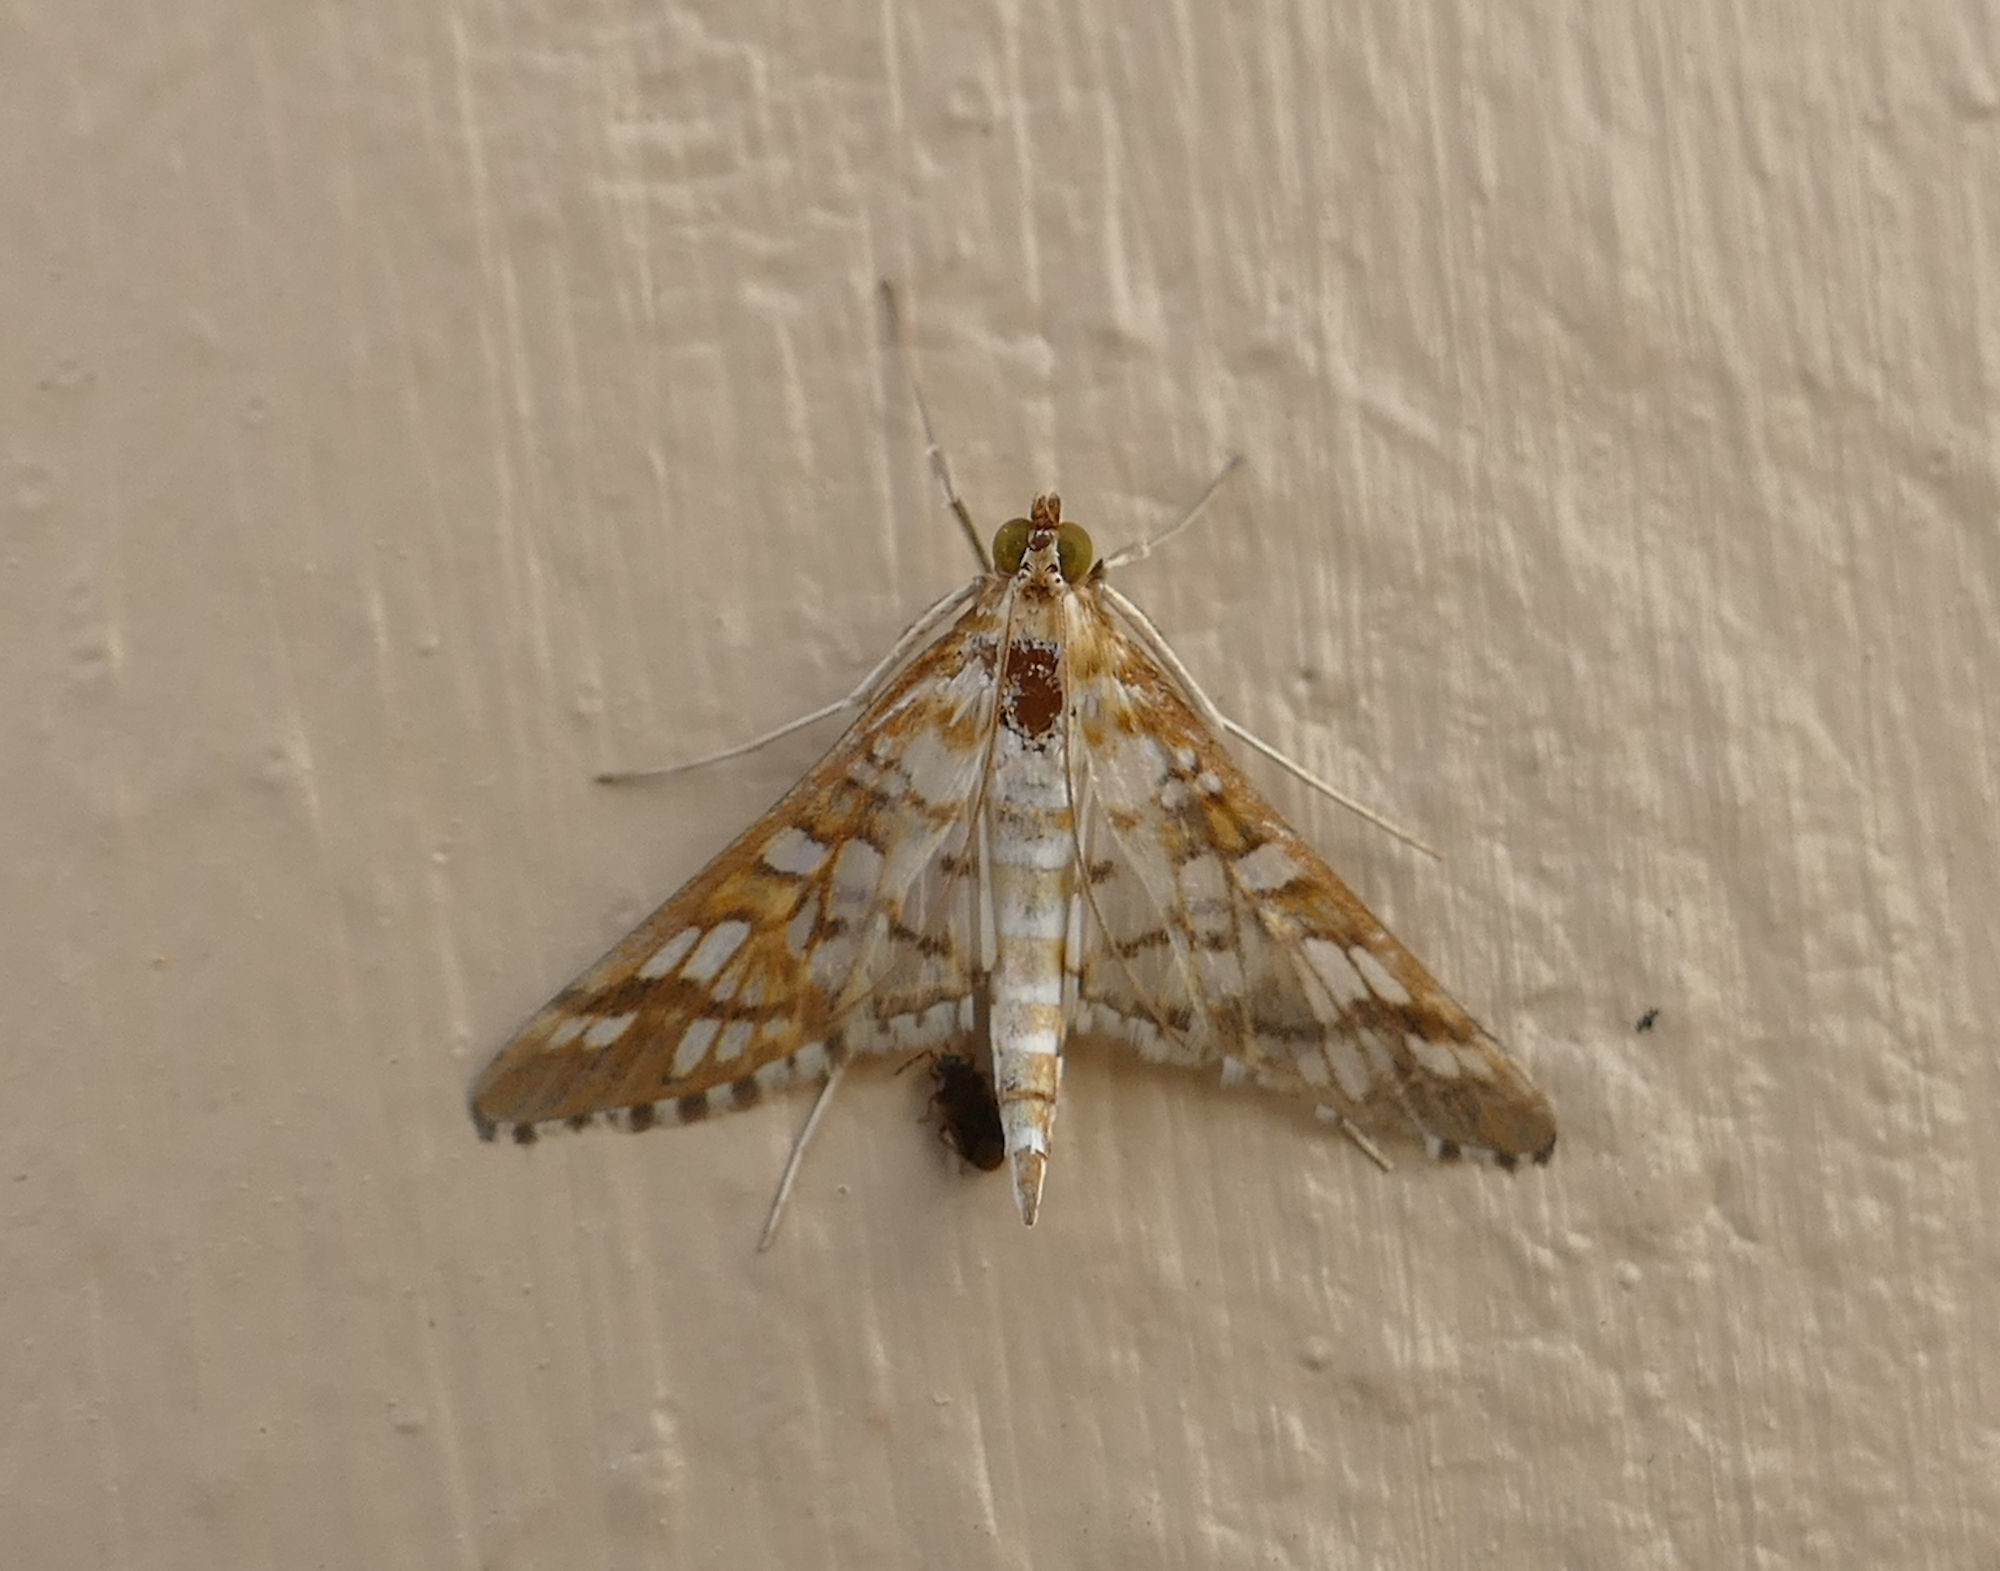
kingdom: Animalia
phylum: Arthropoda
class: Insecta
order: Lepidoptera
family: Crambidae
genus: Epipagis
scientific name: Epipagis fenestralis
